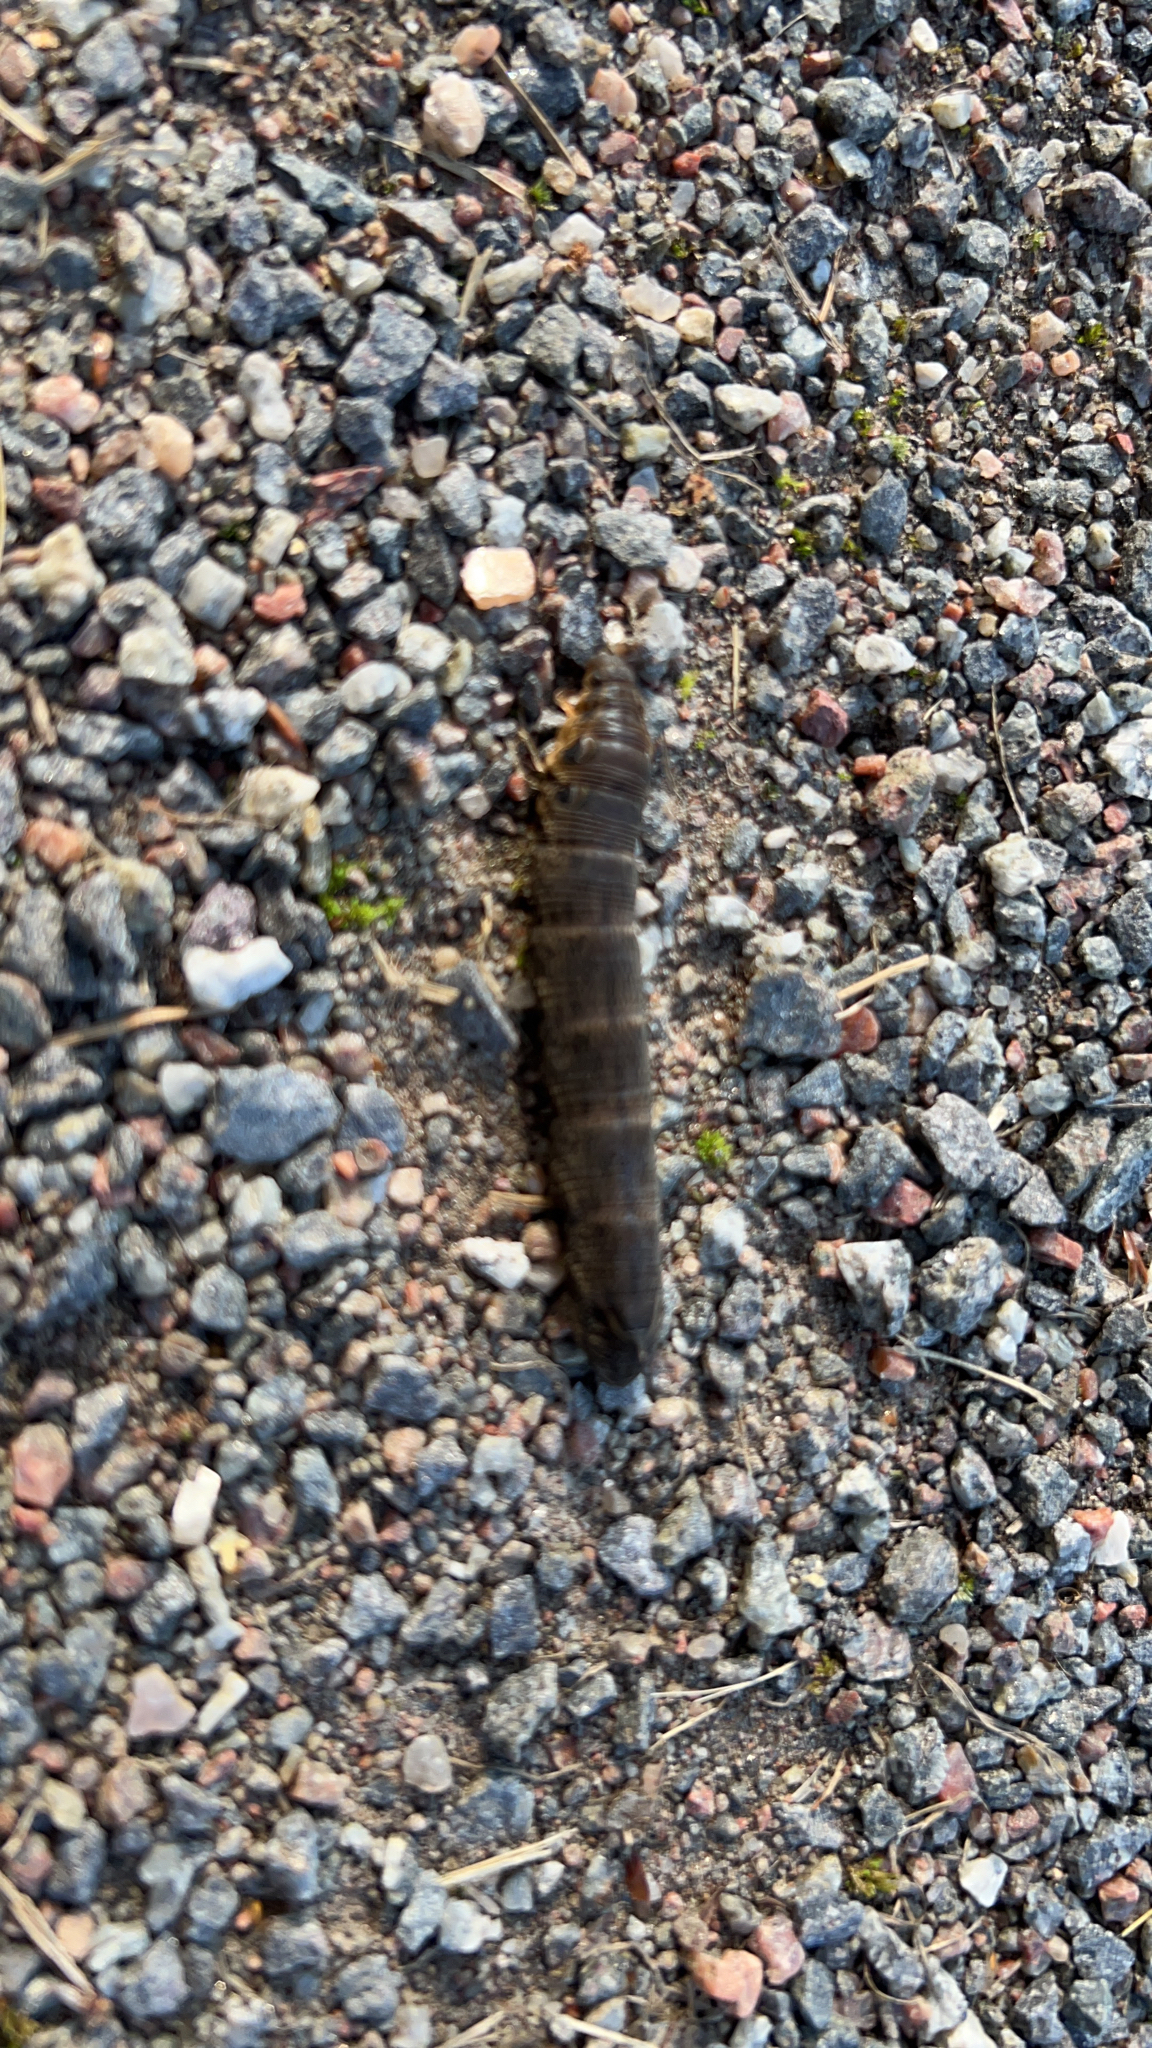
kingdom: Animalia
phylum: Arthropoda
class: Insecta
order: Lepidoptera
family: Sphingidae
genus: Deilephila
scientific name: Deilephila elpenor
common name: Elephant hawk-moth
